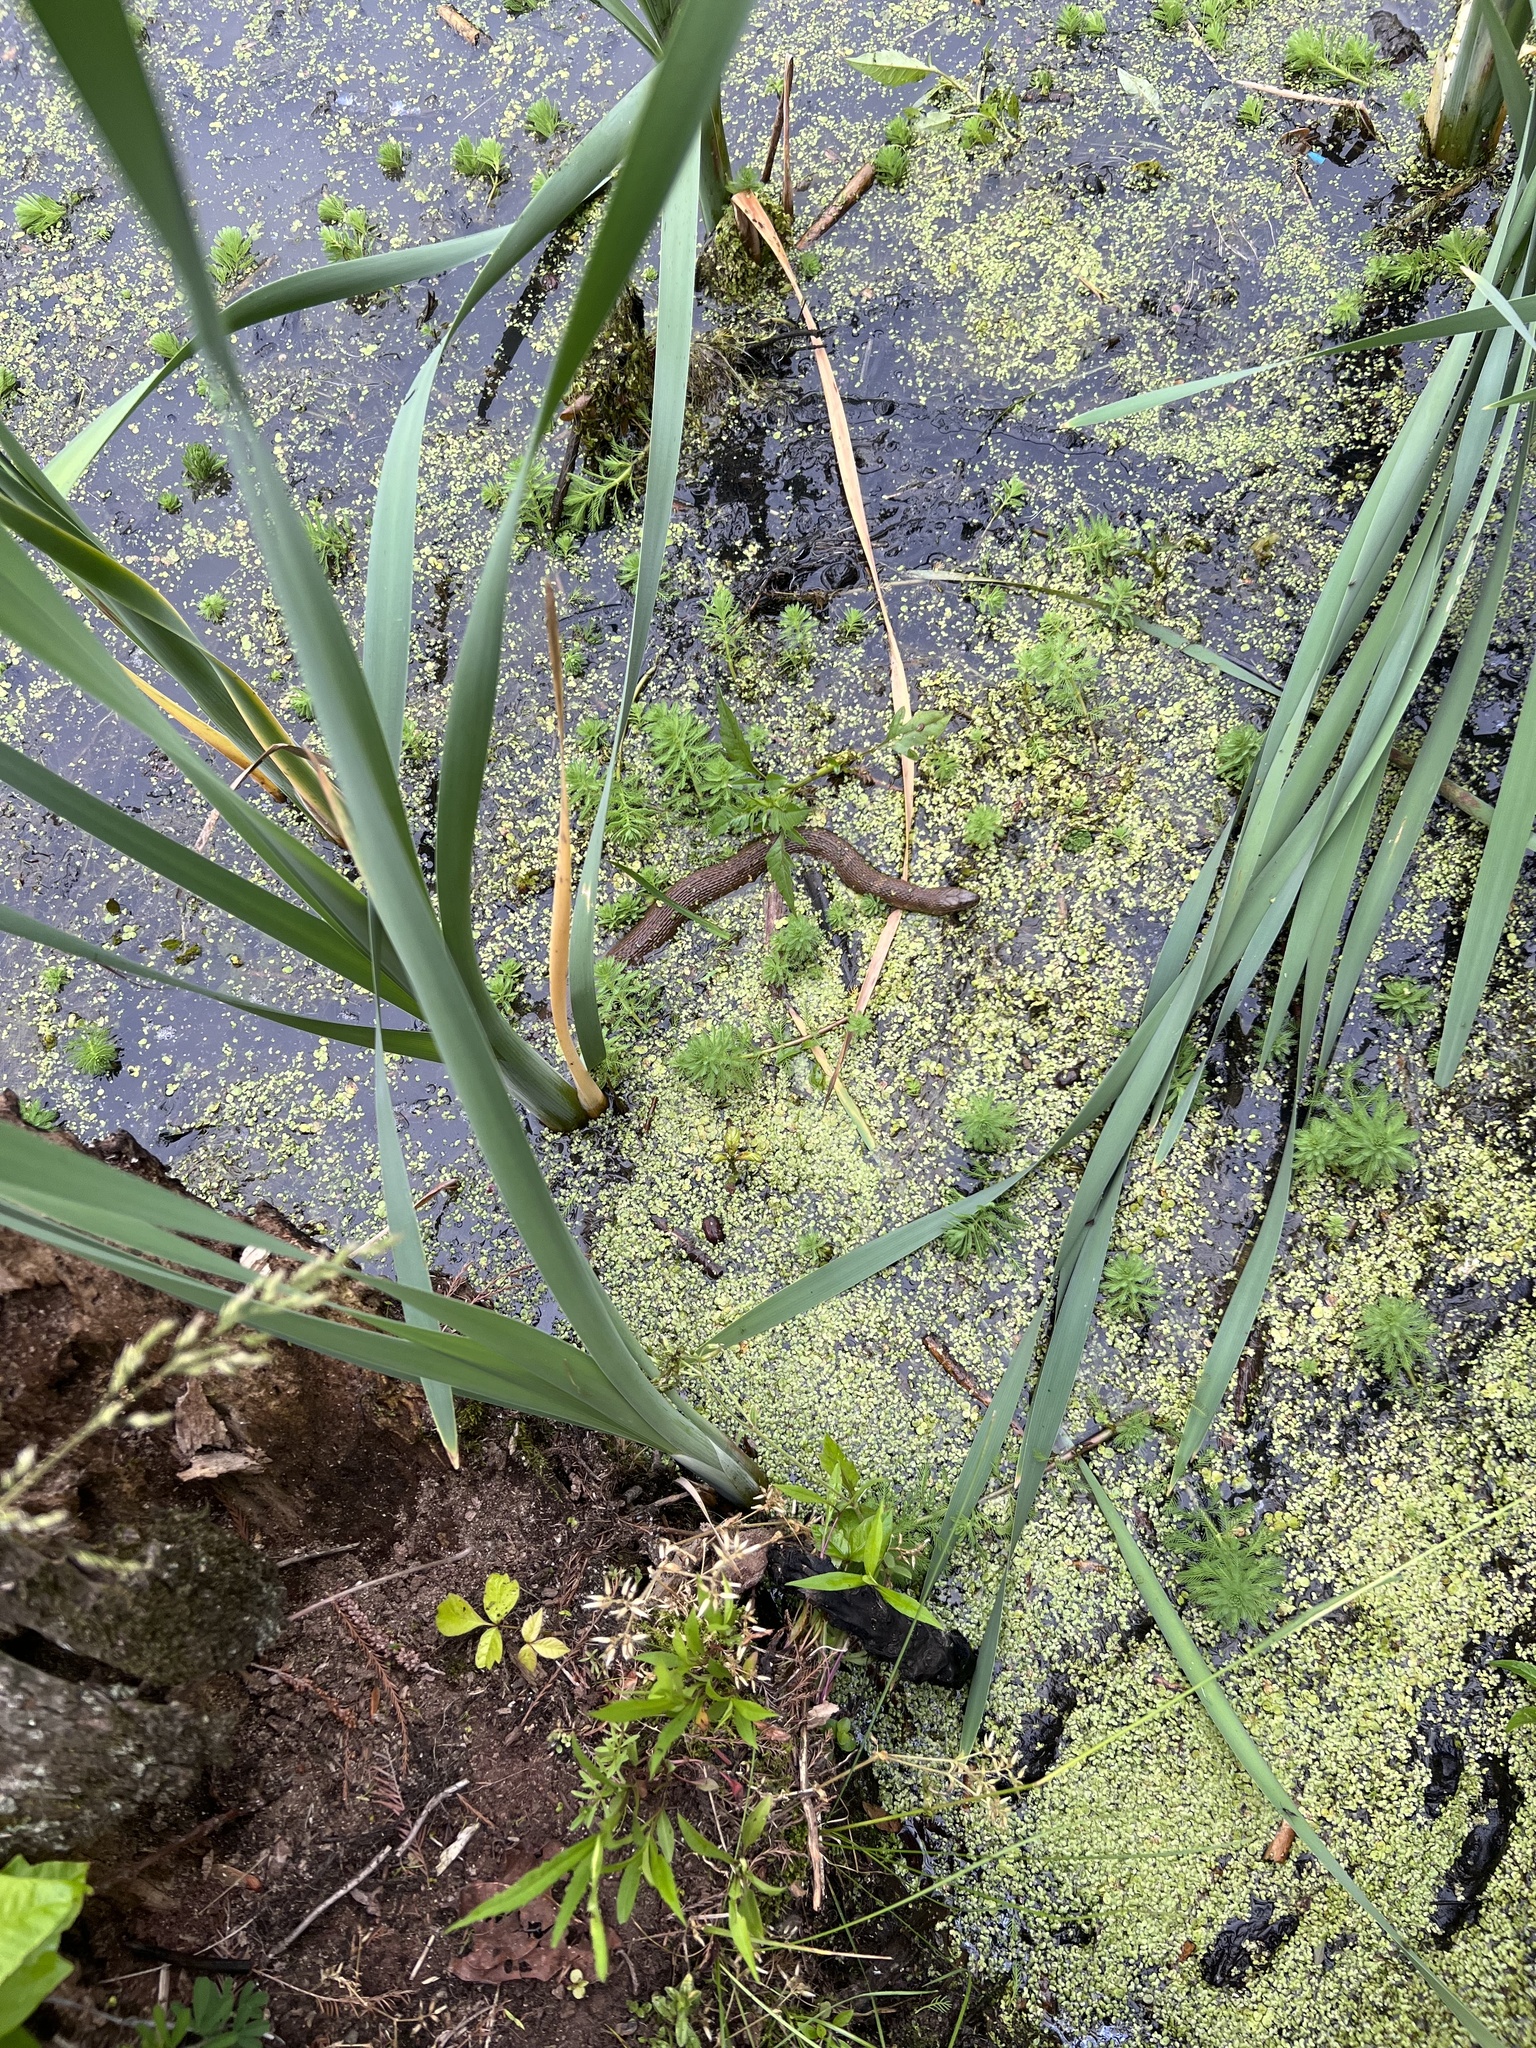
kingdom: Animalia
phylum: Chordata
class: Squamata
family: Colubridae
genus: Nerodia
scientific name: Nerodia sipedon
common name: Northern water snake
